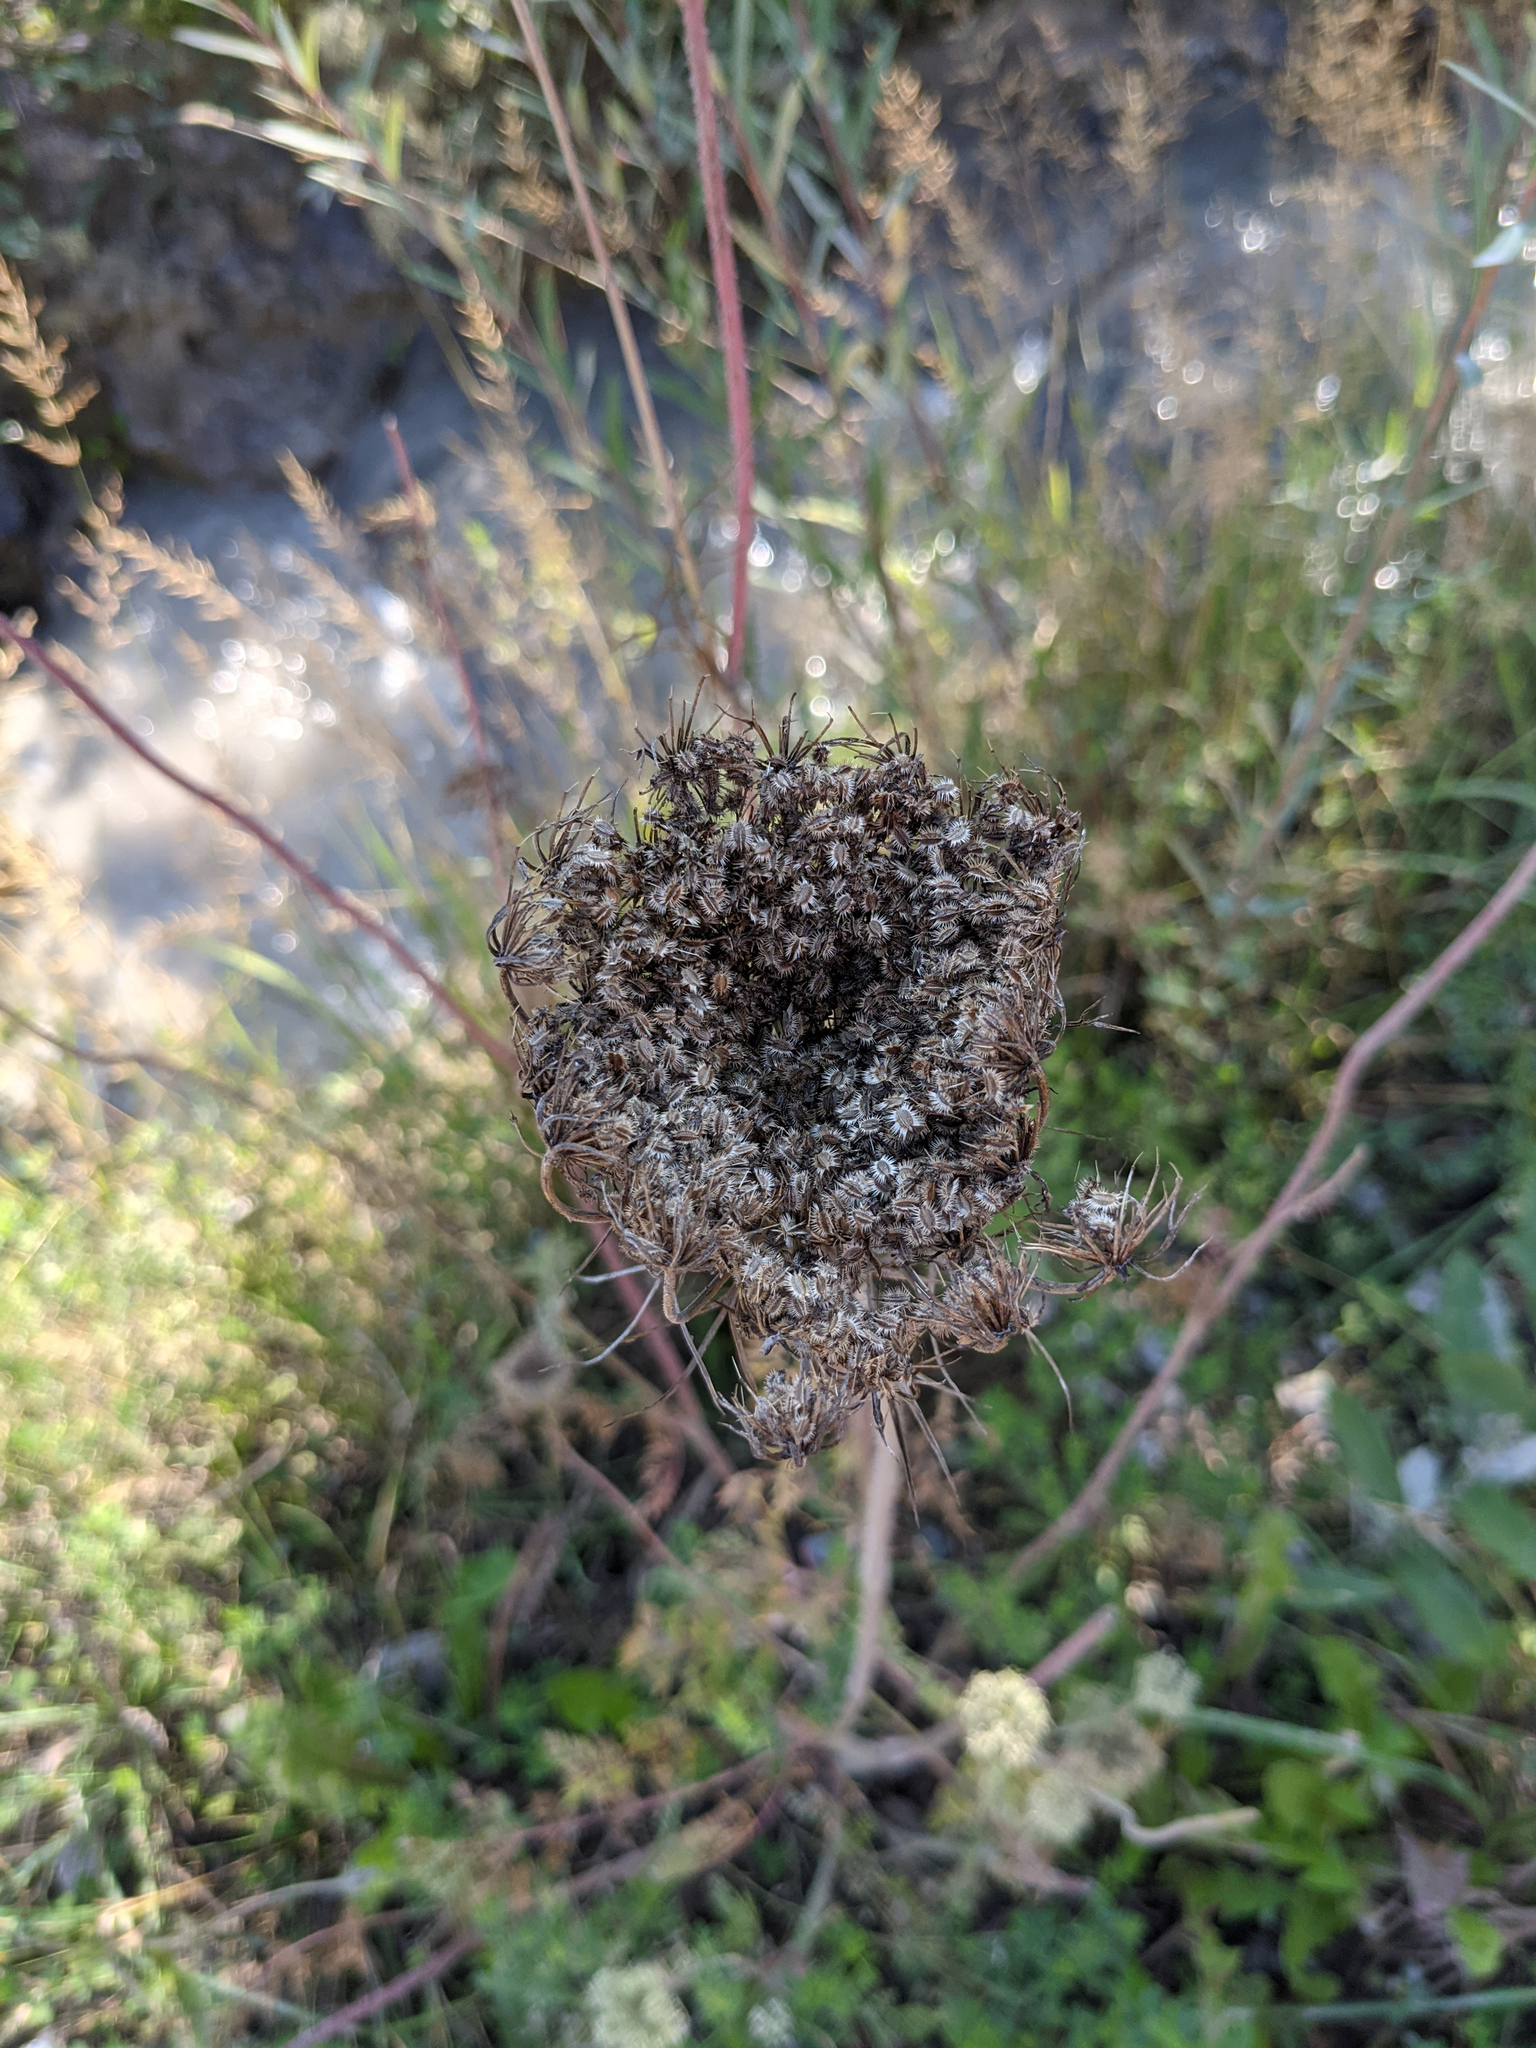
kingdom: Plantae
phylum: Tracheophyta
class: Magnoliopsida
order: Apiales
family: Apiaceae
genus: Daucus
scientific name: Daucus carota
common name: Wild carrot
